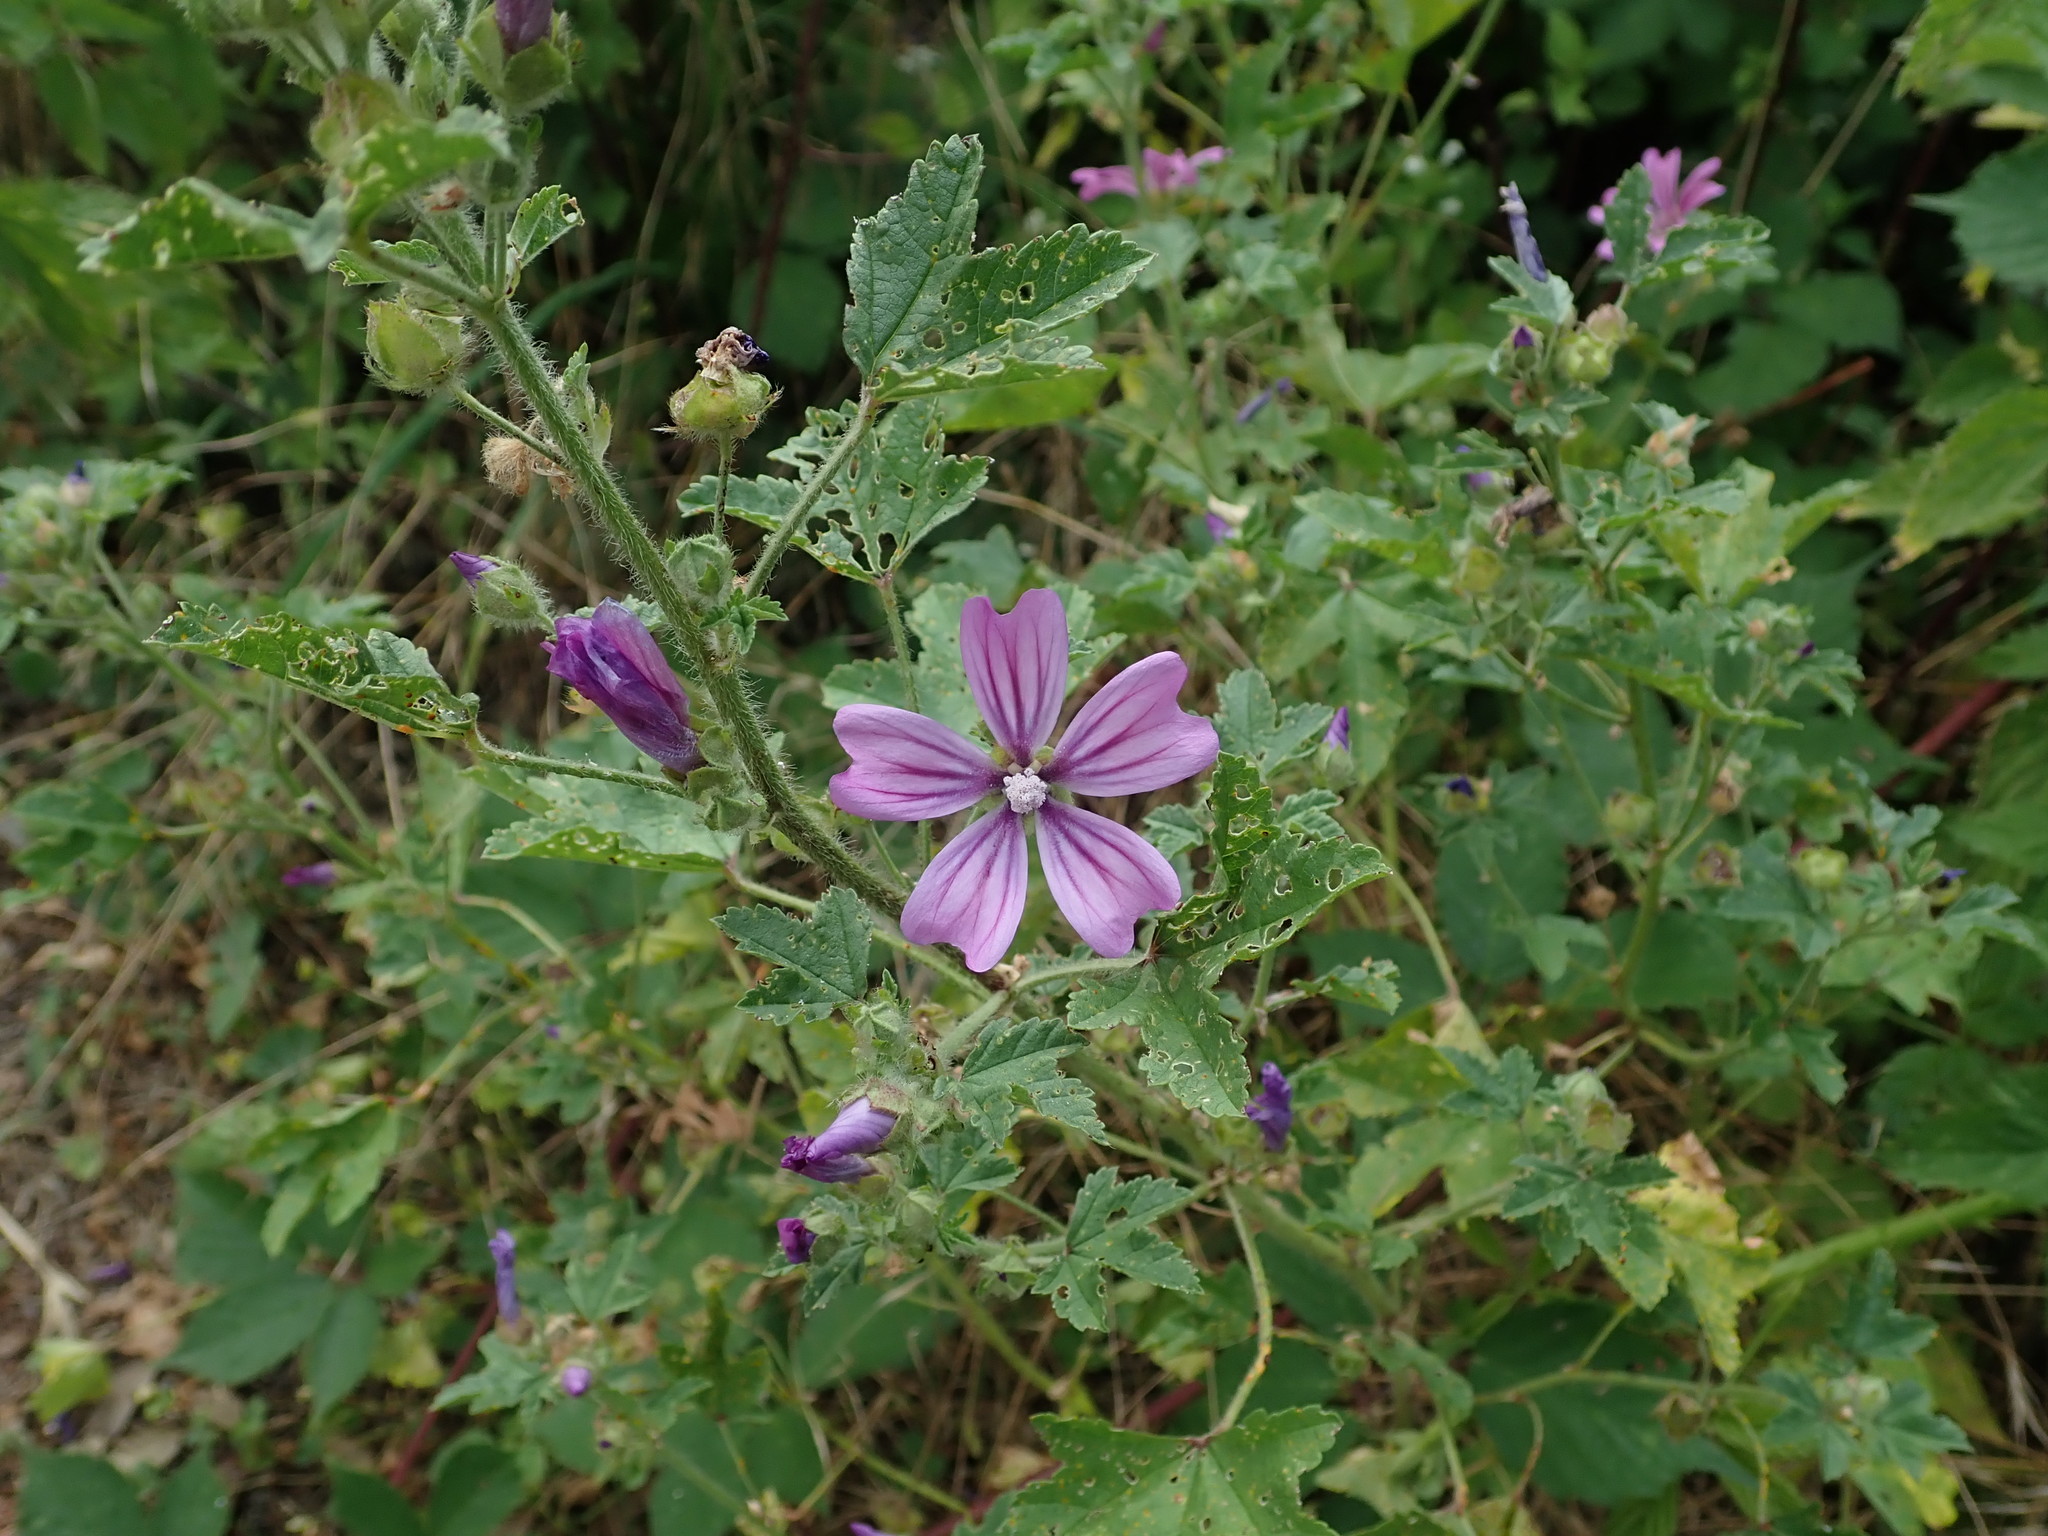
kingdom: Plantae
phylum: Tracheophyta
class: Magnoliopsida
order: Malvales
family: Malvaceae
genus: Malva
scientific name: Malva sylvestris
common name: Common mallow
